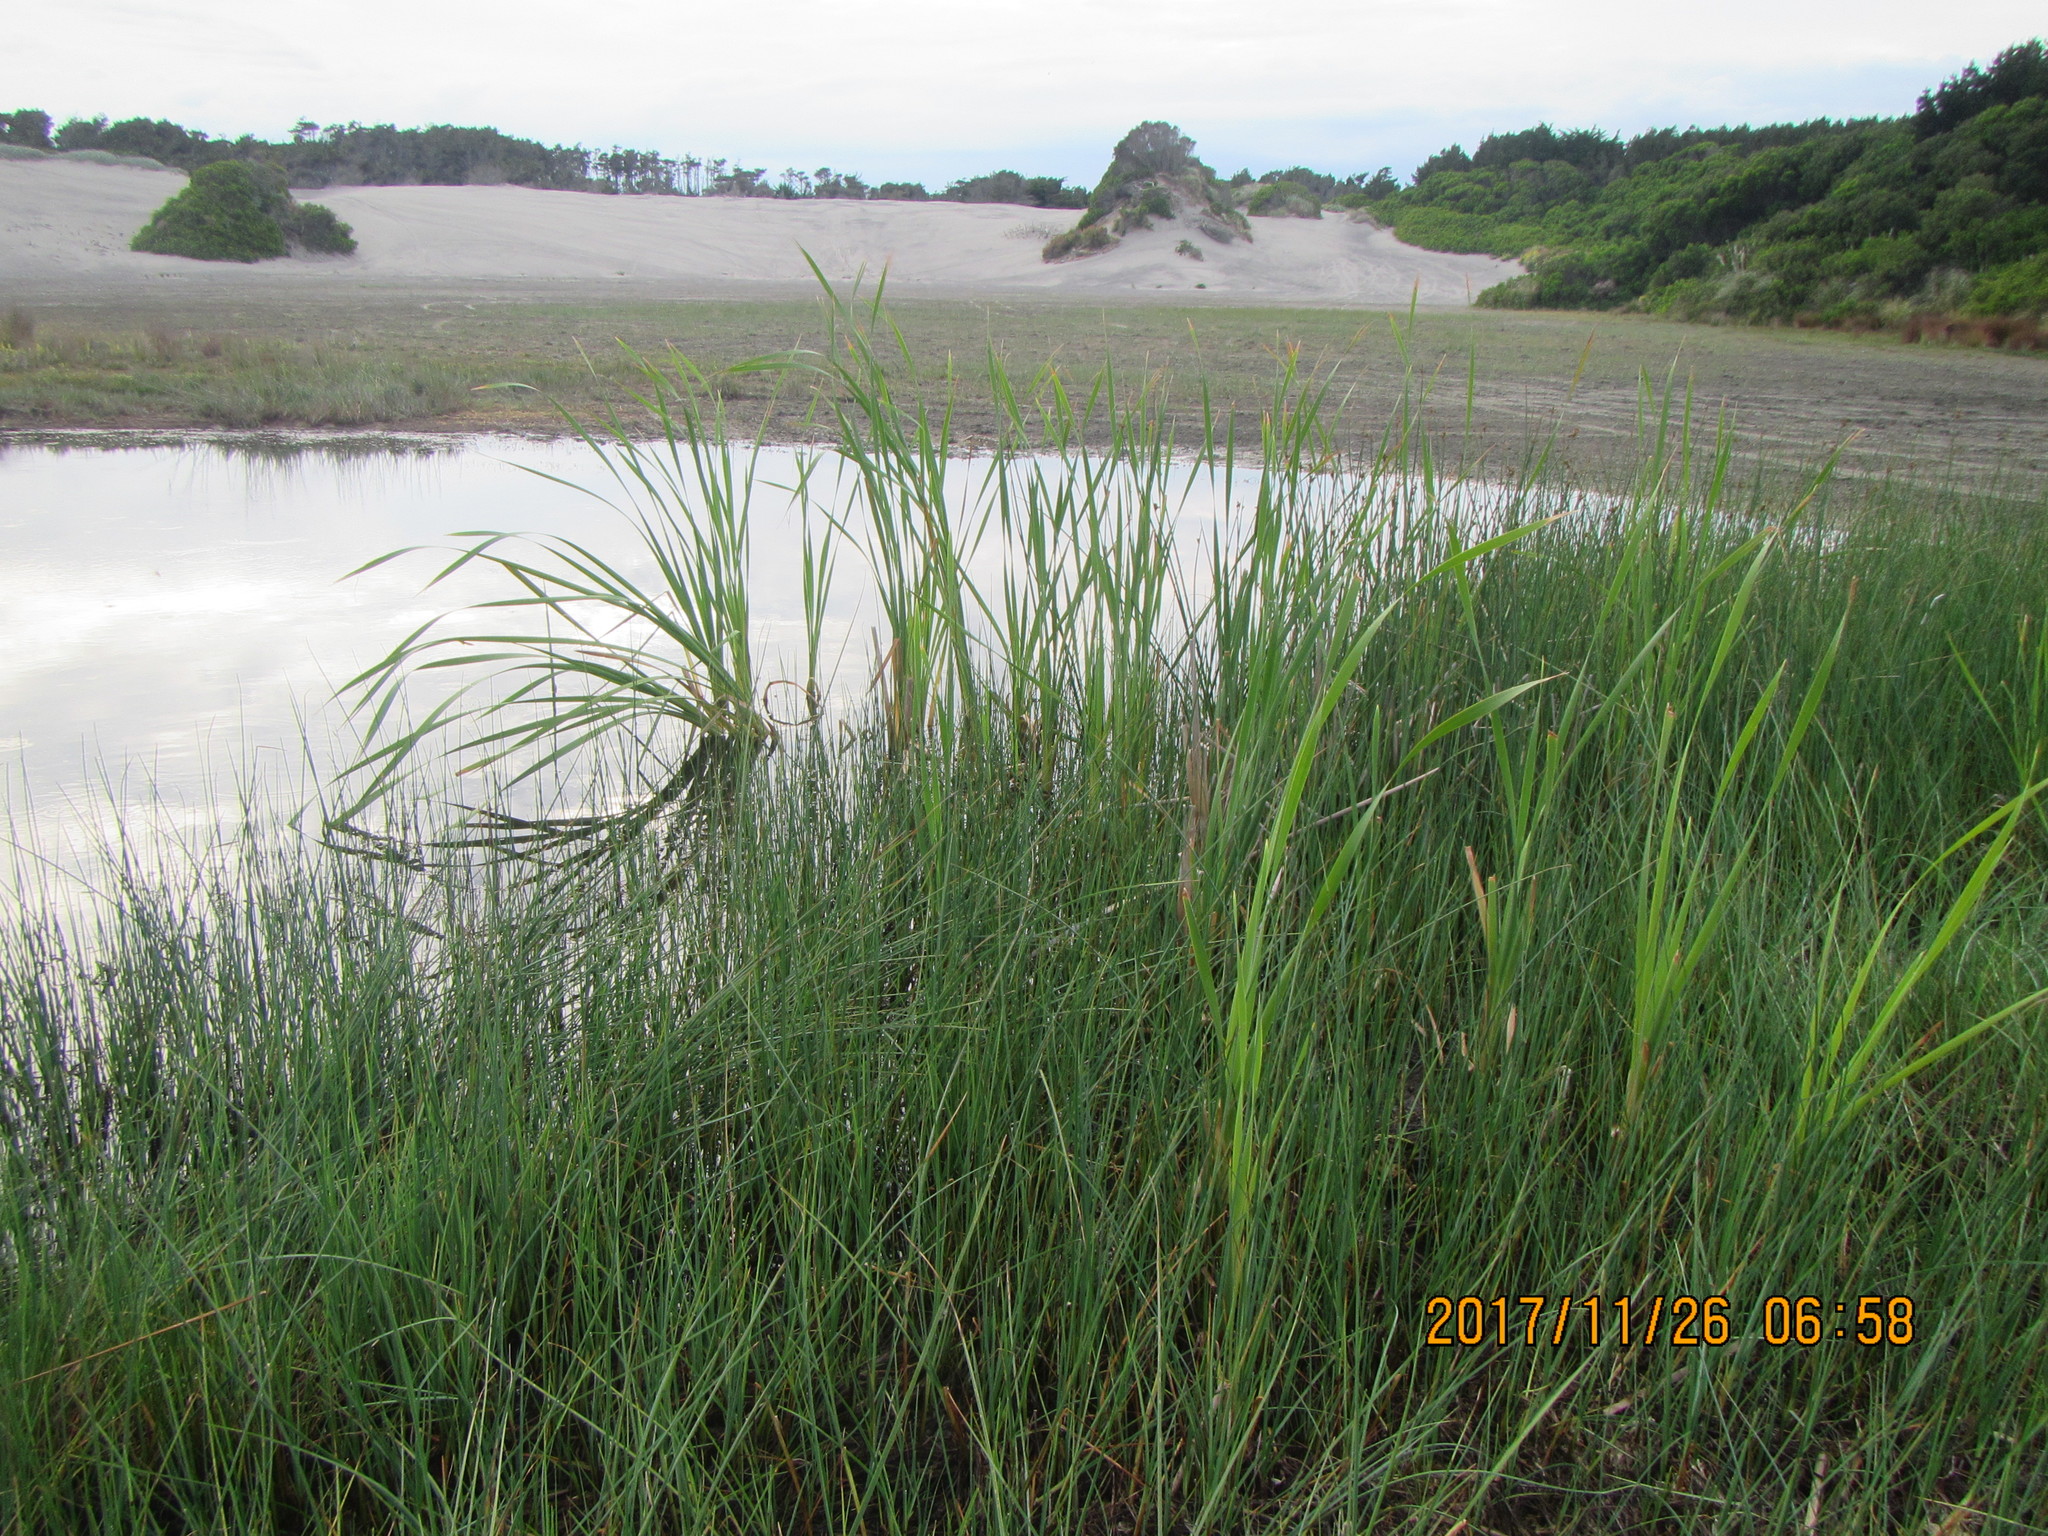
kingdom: Plantae
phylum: Tracheophyta
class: Liliopsida
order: Poales
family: Typhaceae
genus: Typha
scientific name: Typha orientalis
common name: Bullrush
